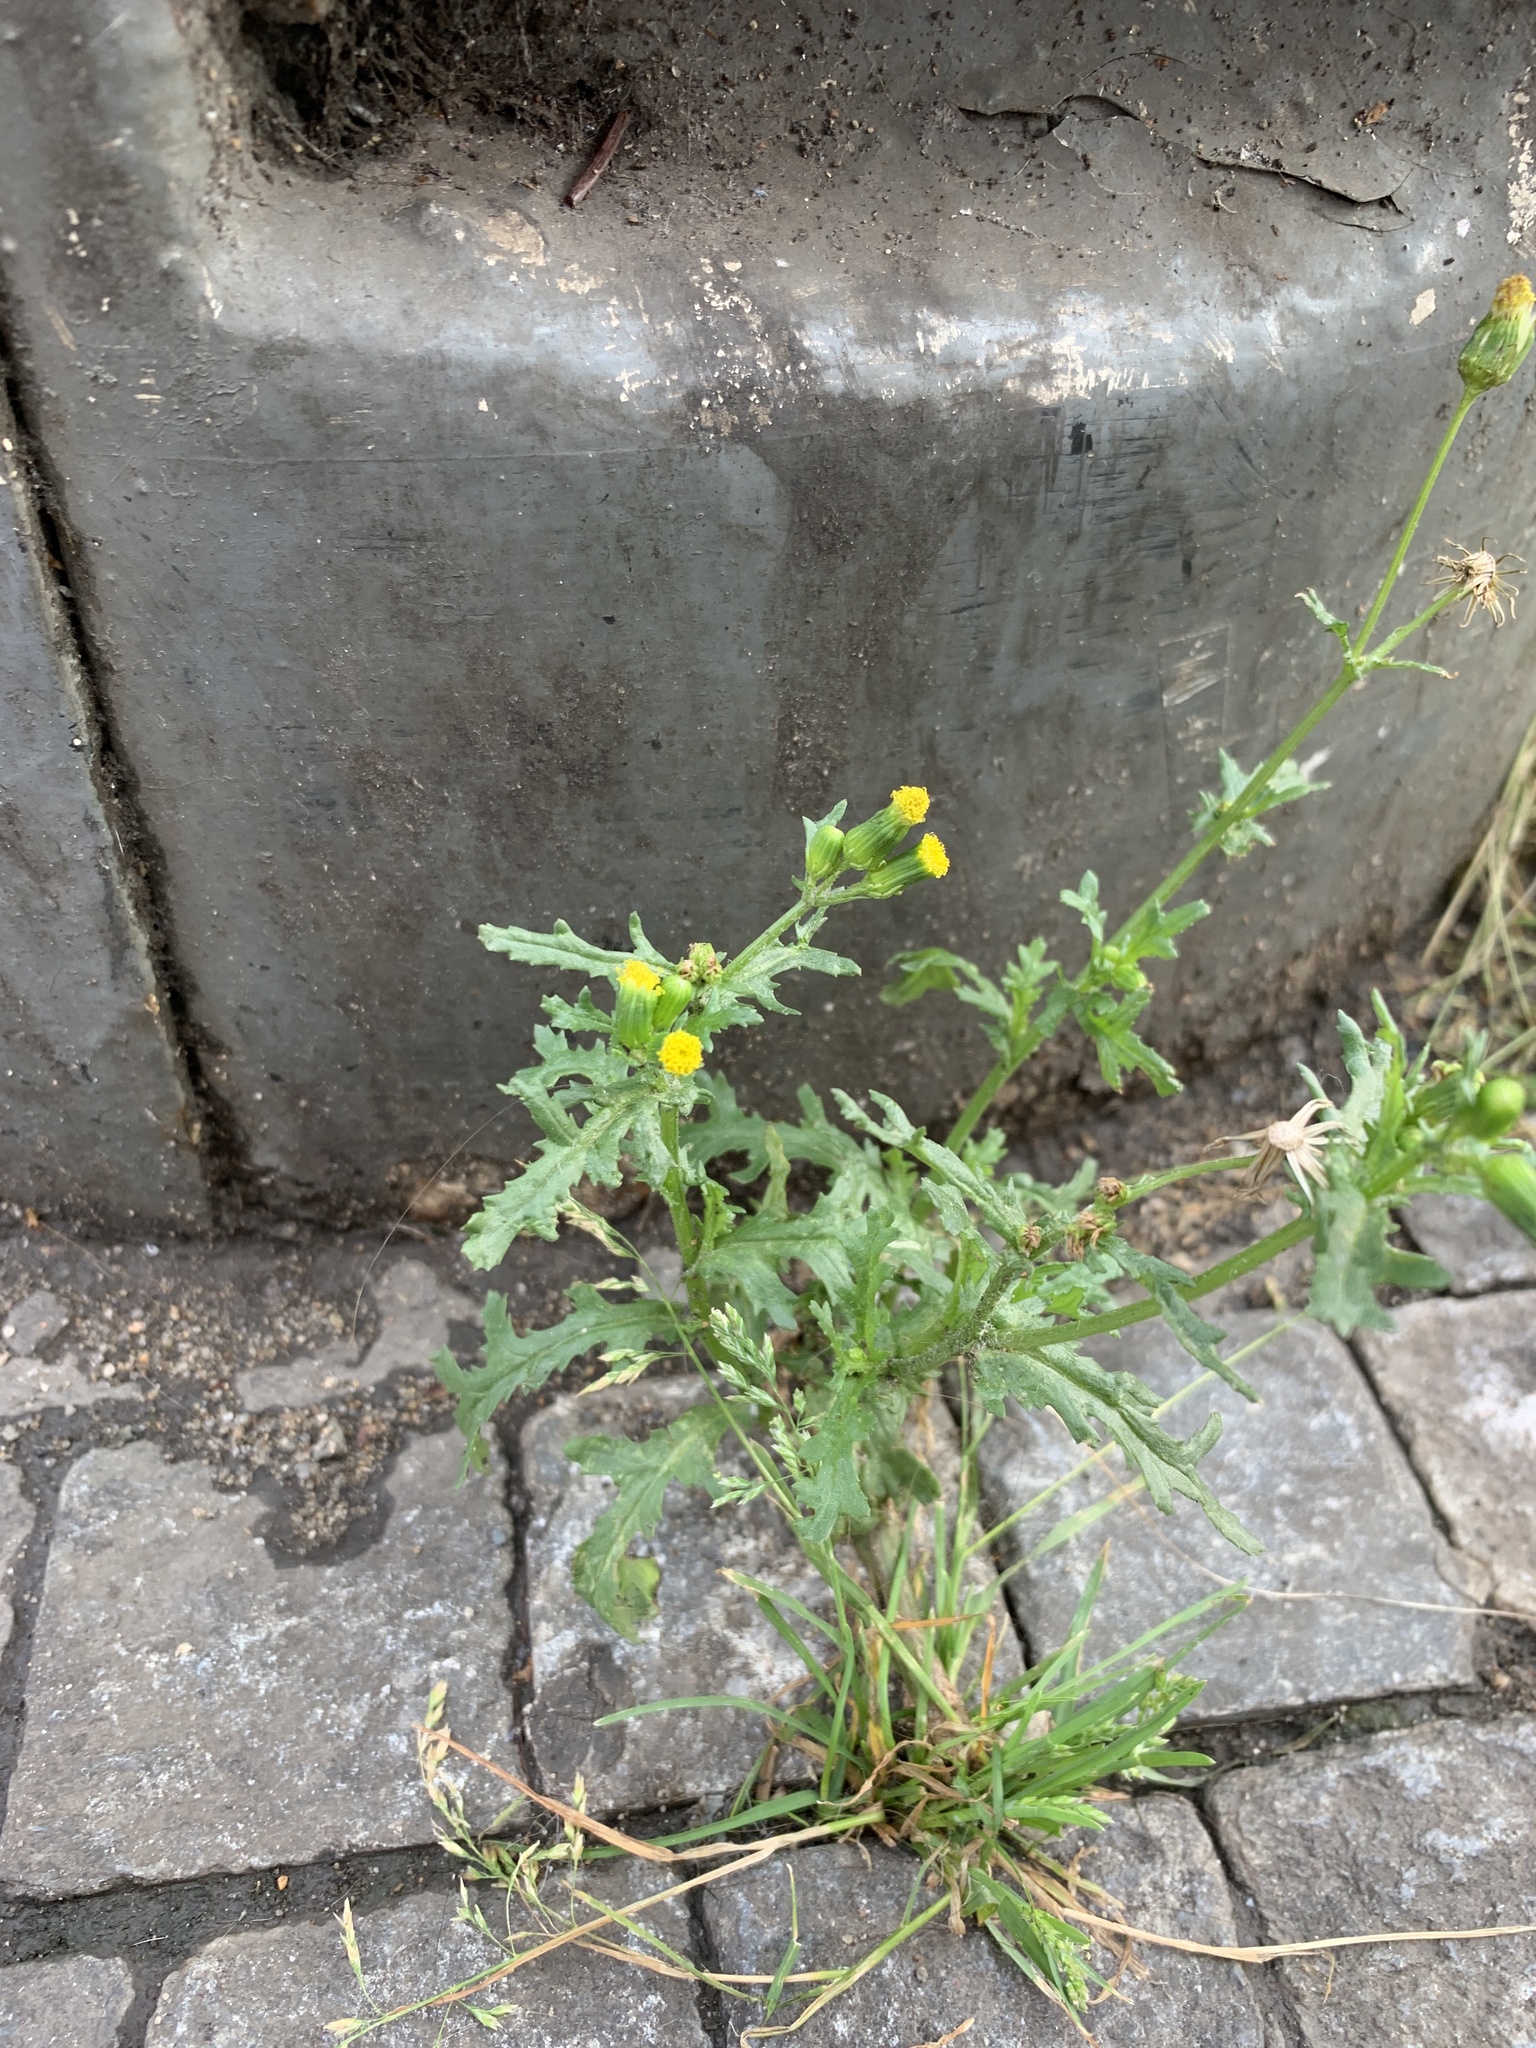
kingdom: Plantae
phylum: Tracheophyta
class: Magnoliopsida
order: Asterales
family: Asteraceae
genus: Senecio
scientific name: Senecio vulgaris
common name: Old-man-in-the-spring
